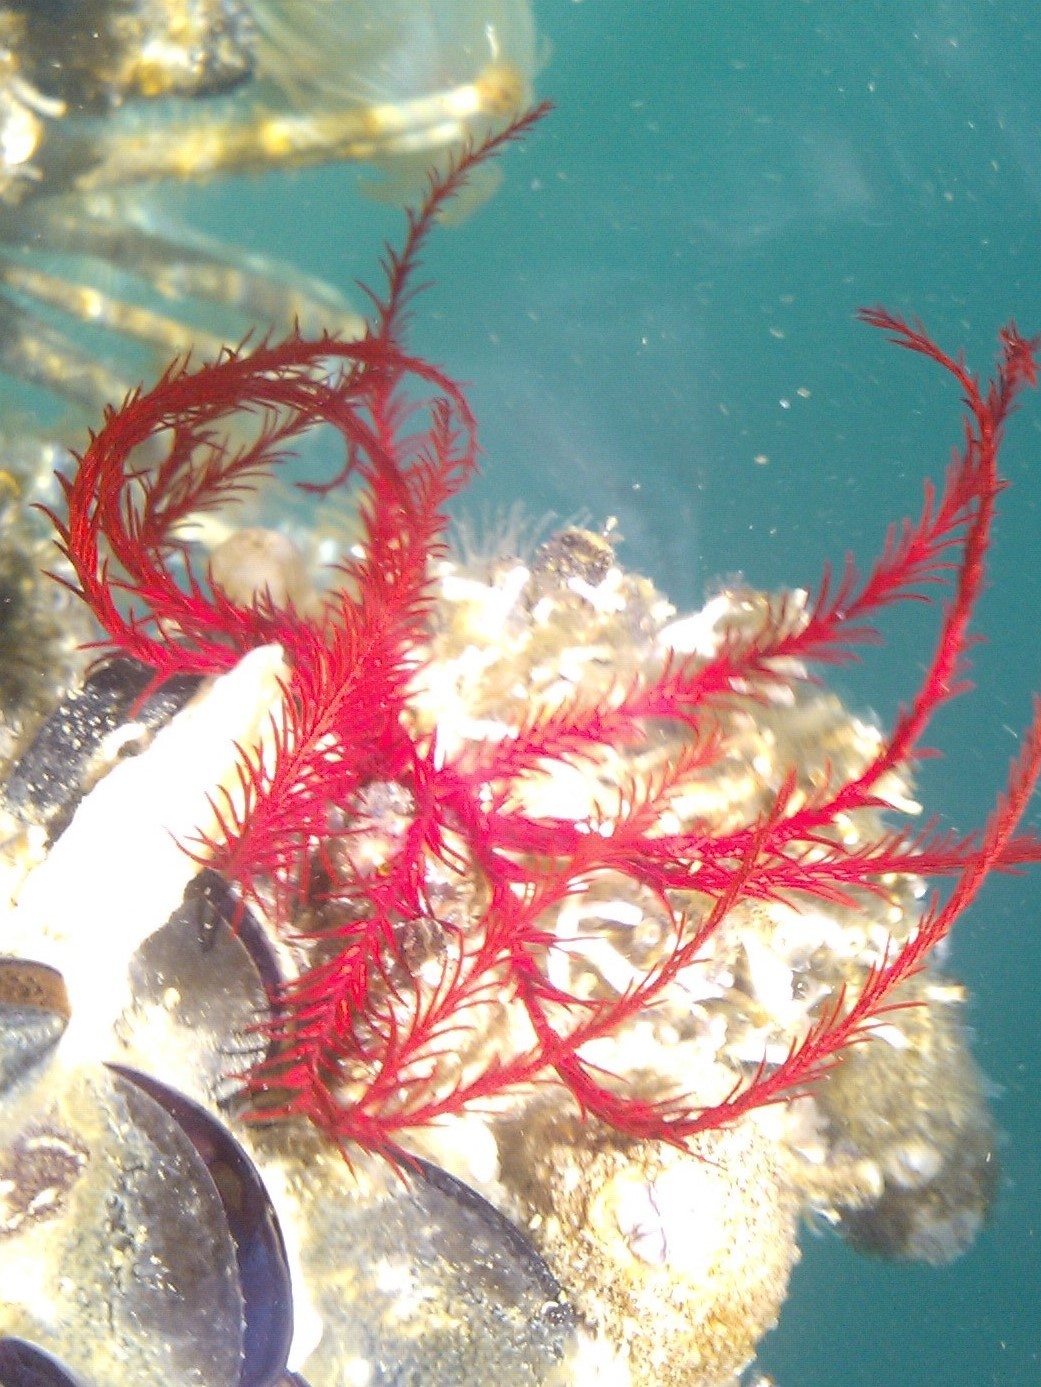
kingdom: Animalia
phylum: Echinodermata
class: Crinoidea
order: Comatulida
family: Antedonidae
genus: Antedon
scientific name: Antedon mediterranea
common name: Feather star
